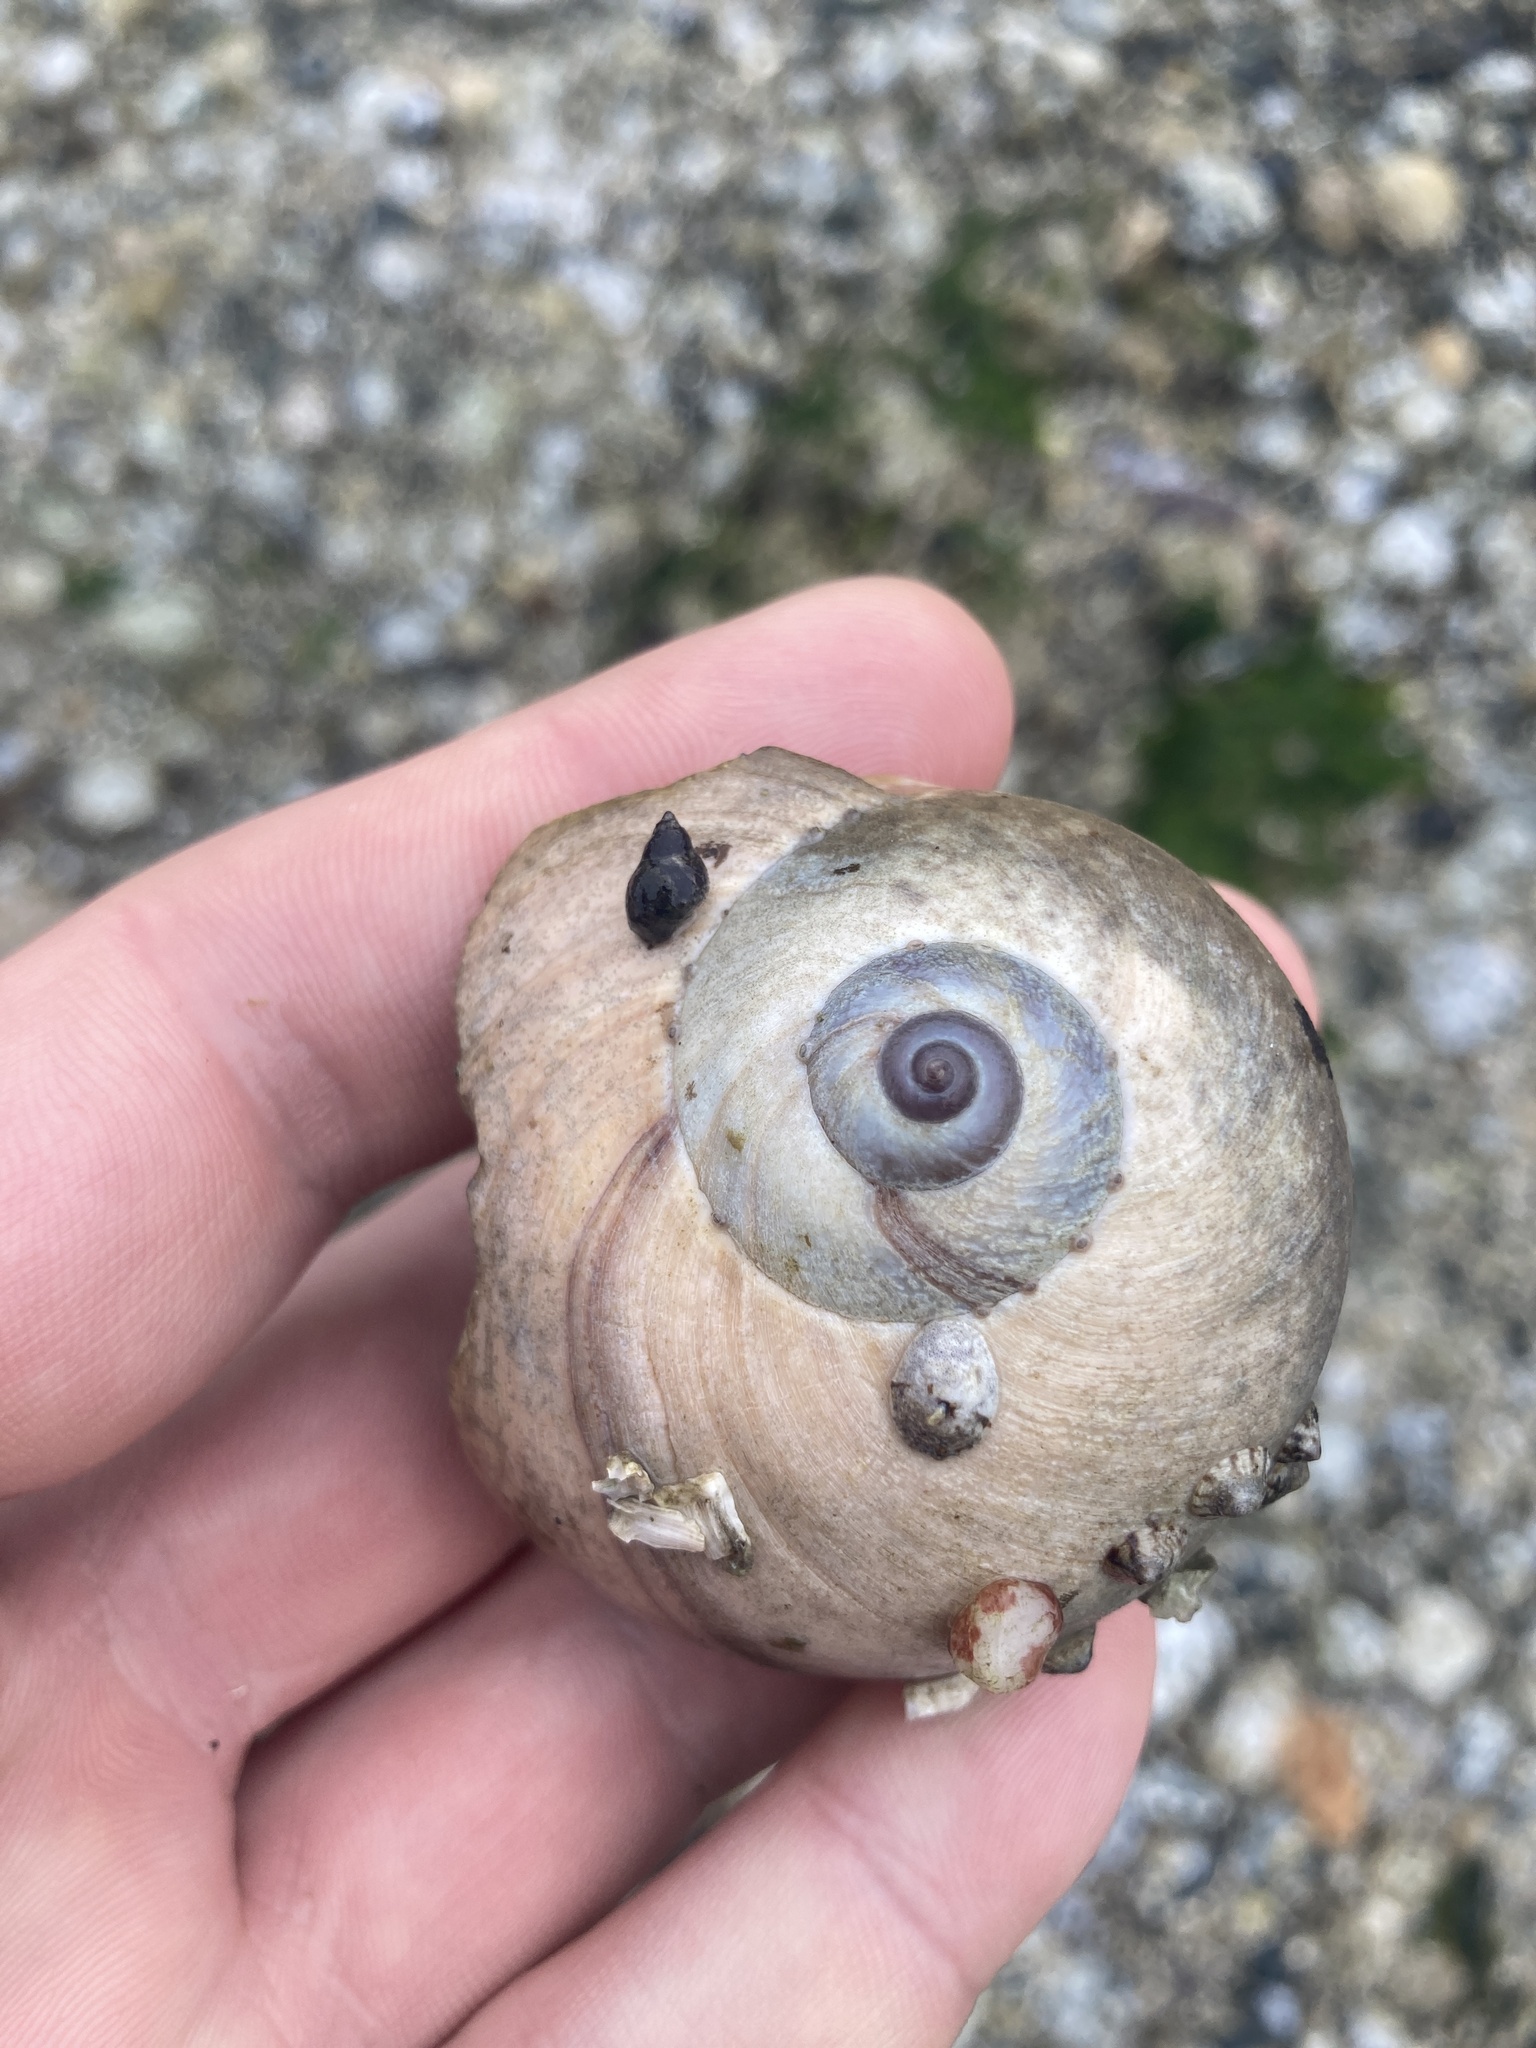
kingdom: Animalia
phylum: Mollusca
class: Gastropoda
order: Littorinimorpha
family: Naticidae
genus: Neverita
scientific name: Neverita lewisii
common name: Lewis' moonsnail
